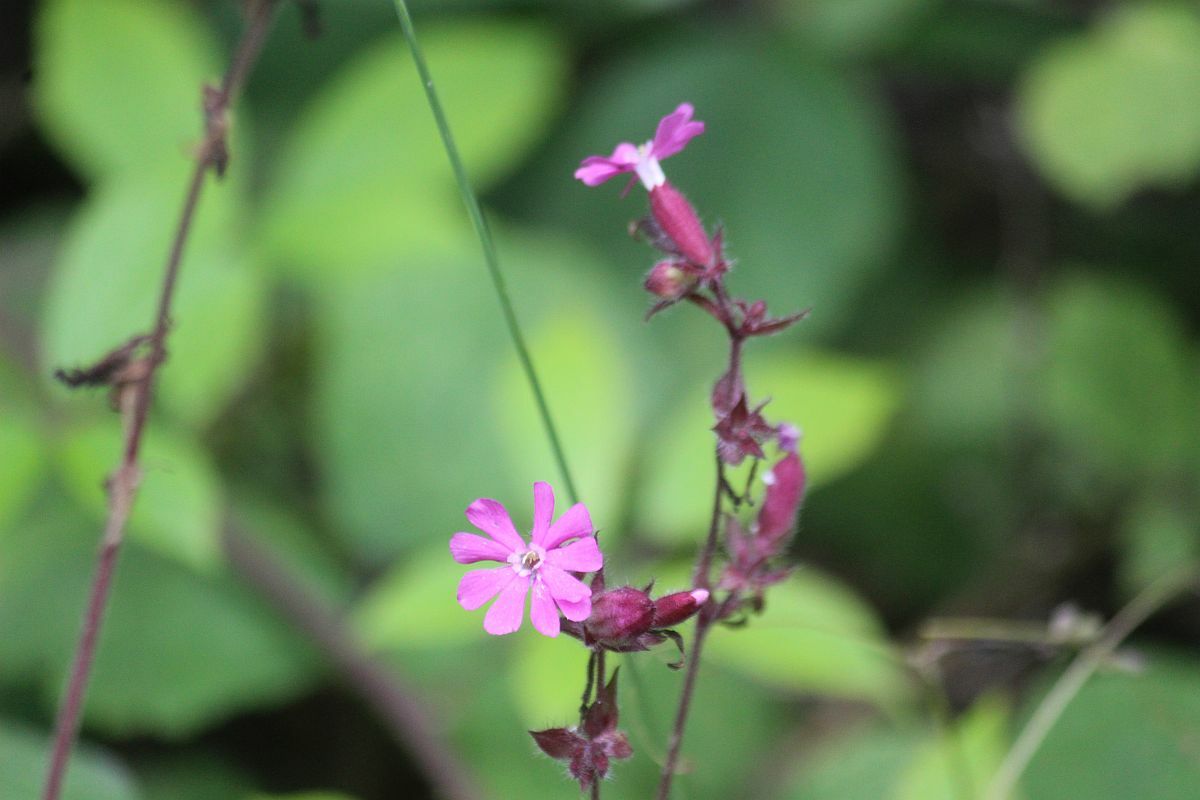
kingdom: Plantae
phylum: Tracheophyta
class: Magnoliopsida
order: Caryophyllales
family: Caryophyllaceae
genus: Silene
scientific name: Silene dioica
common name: Red campion
